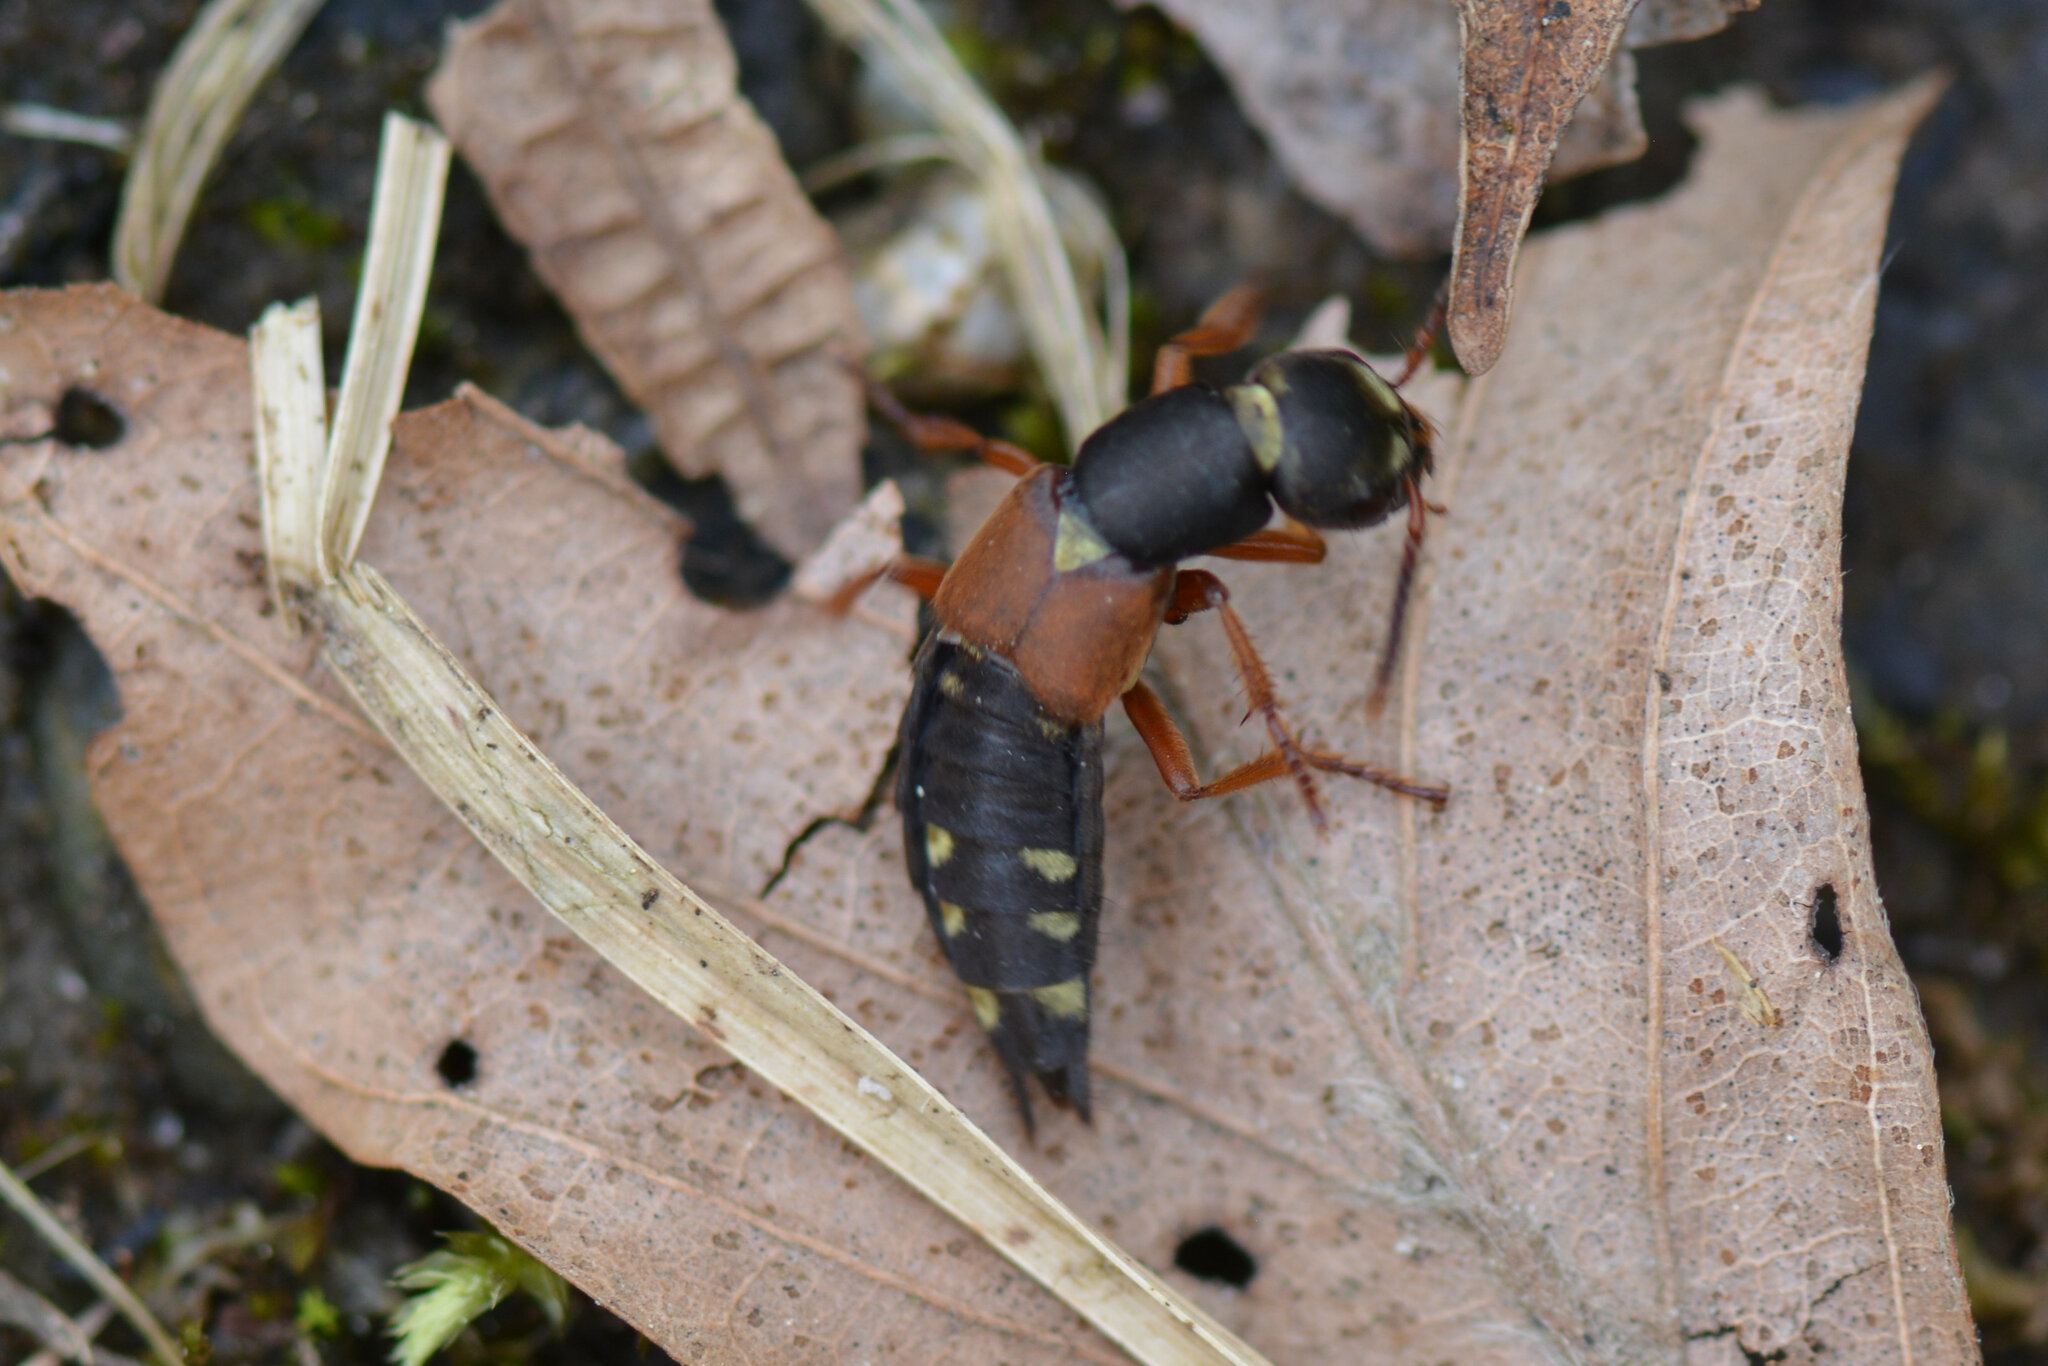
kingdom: Animalia
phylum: Arthropoda
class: Insecta
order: Coleoptera
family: Staphylinidae
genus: Staphylinus
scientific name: Staphylinus erythropterus
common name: Staph beetle
